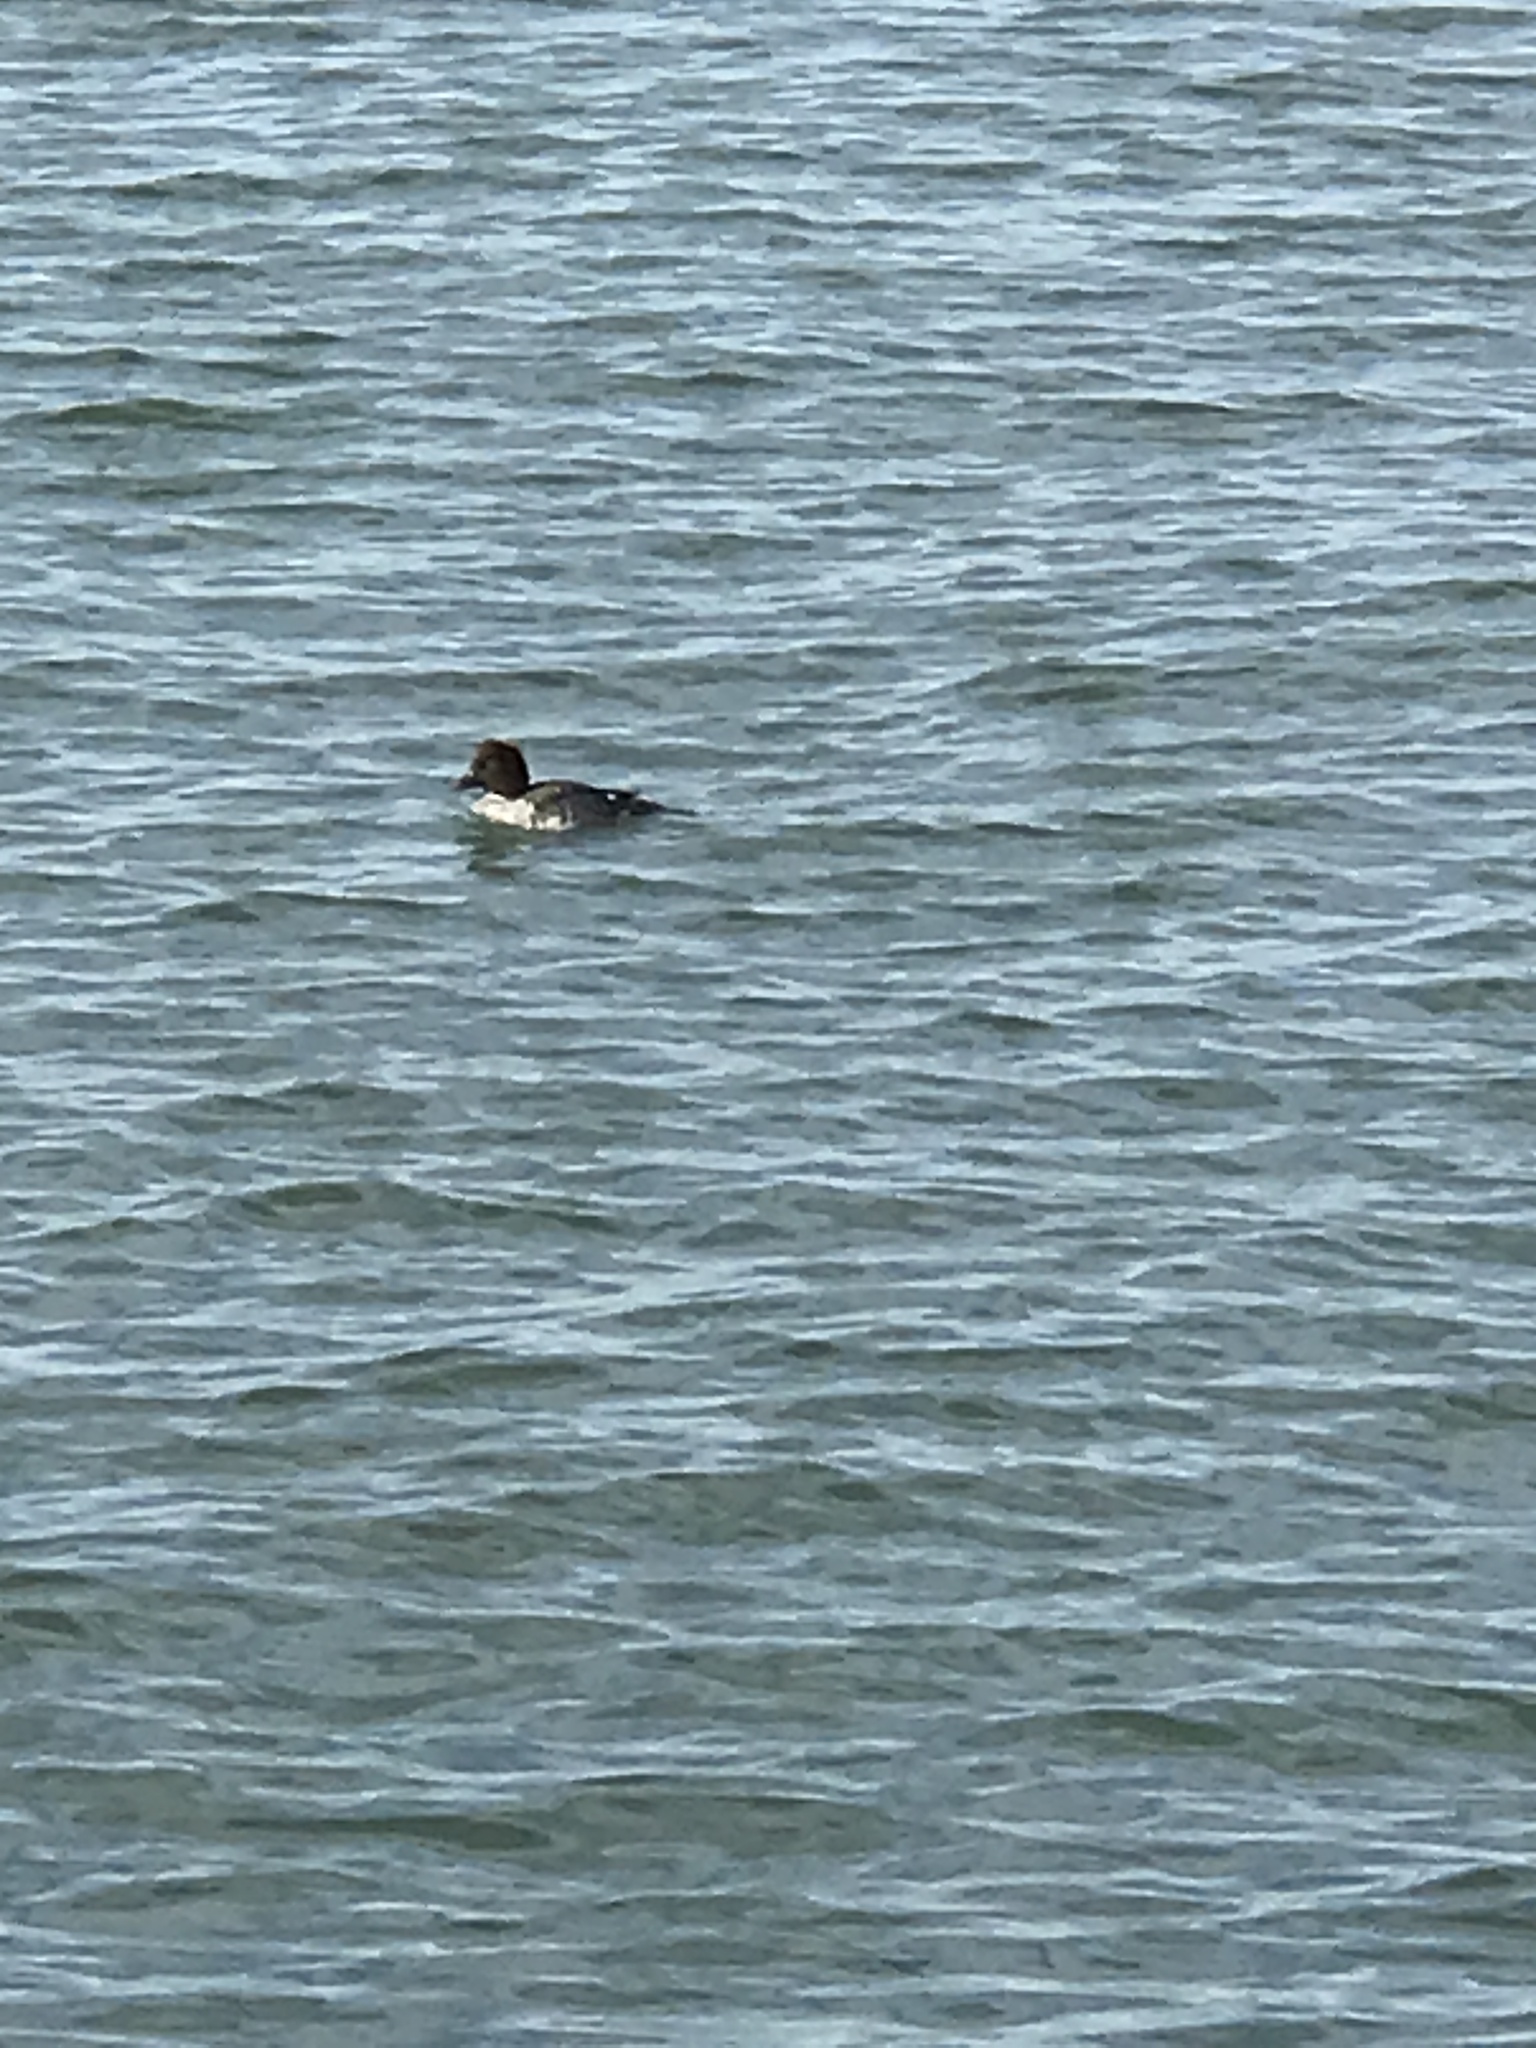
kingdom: Animalia
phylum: Chordata
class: Aves
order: Anseriformes
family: Anatidae
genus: Bucephala
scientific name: Bucephala clangula
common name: Common goldeneye
